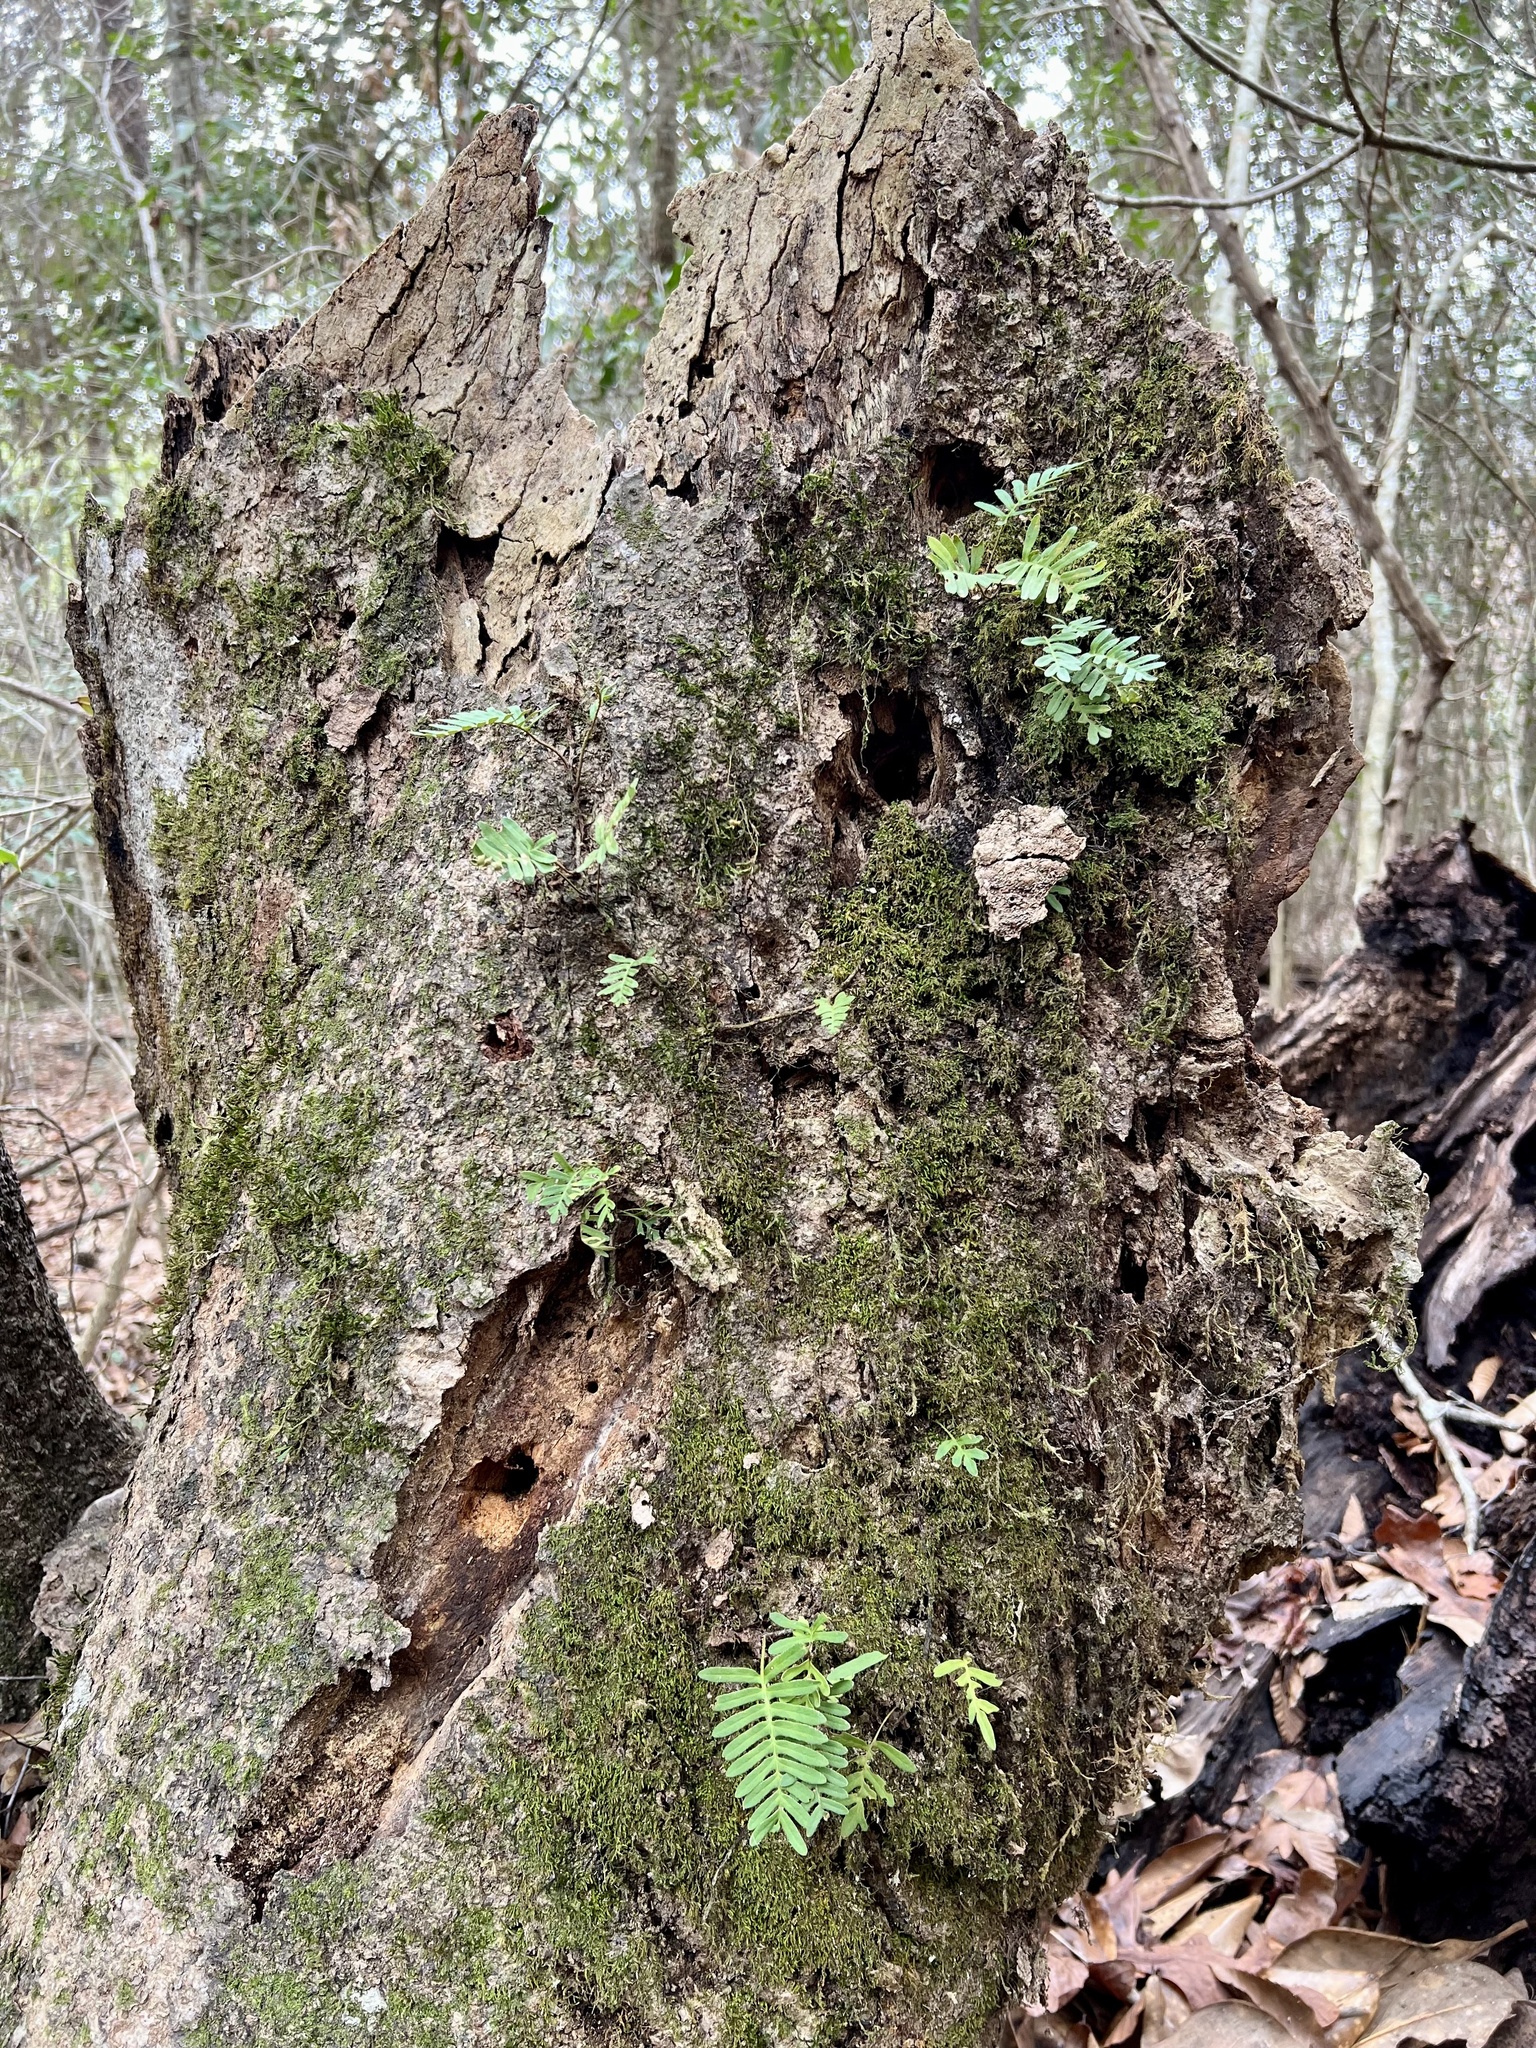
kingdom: Plantae
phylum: Tracheophyta
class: Polypodiopsida
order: Polypodiales
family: Polypodiaceae
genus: Pleopeltis
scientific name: Pleopeltis michauxiana
